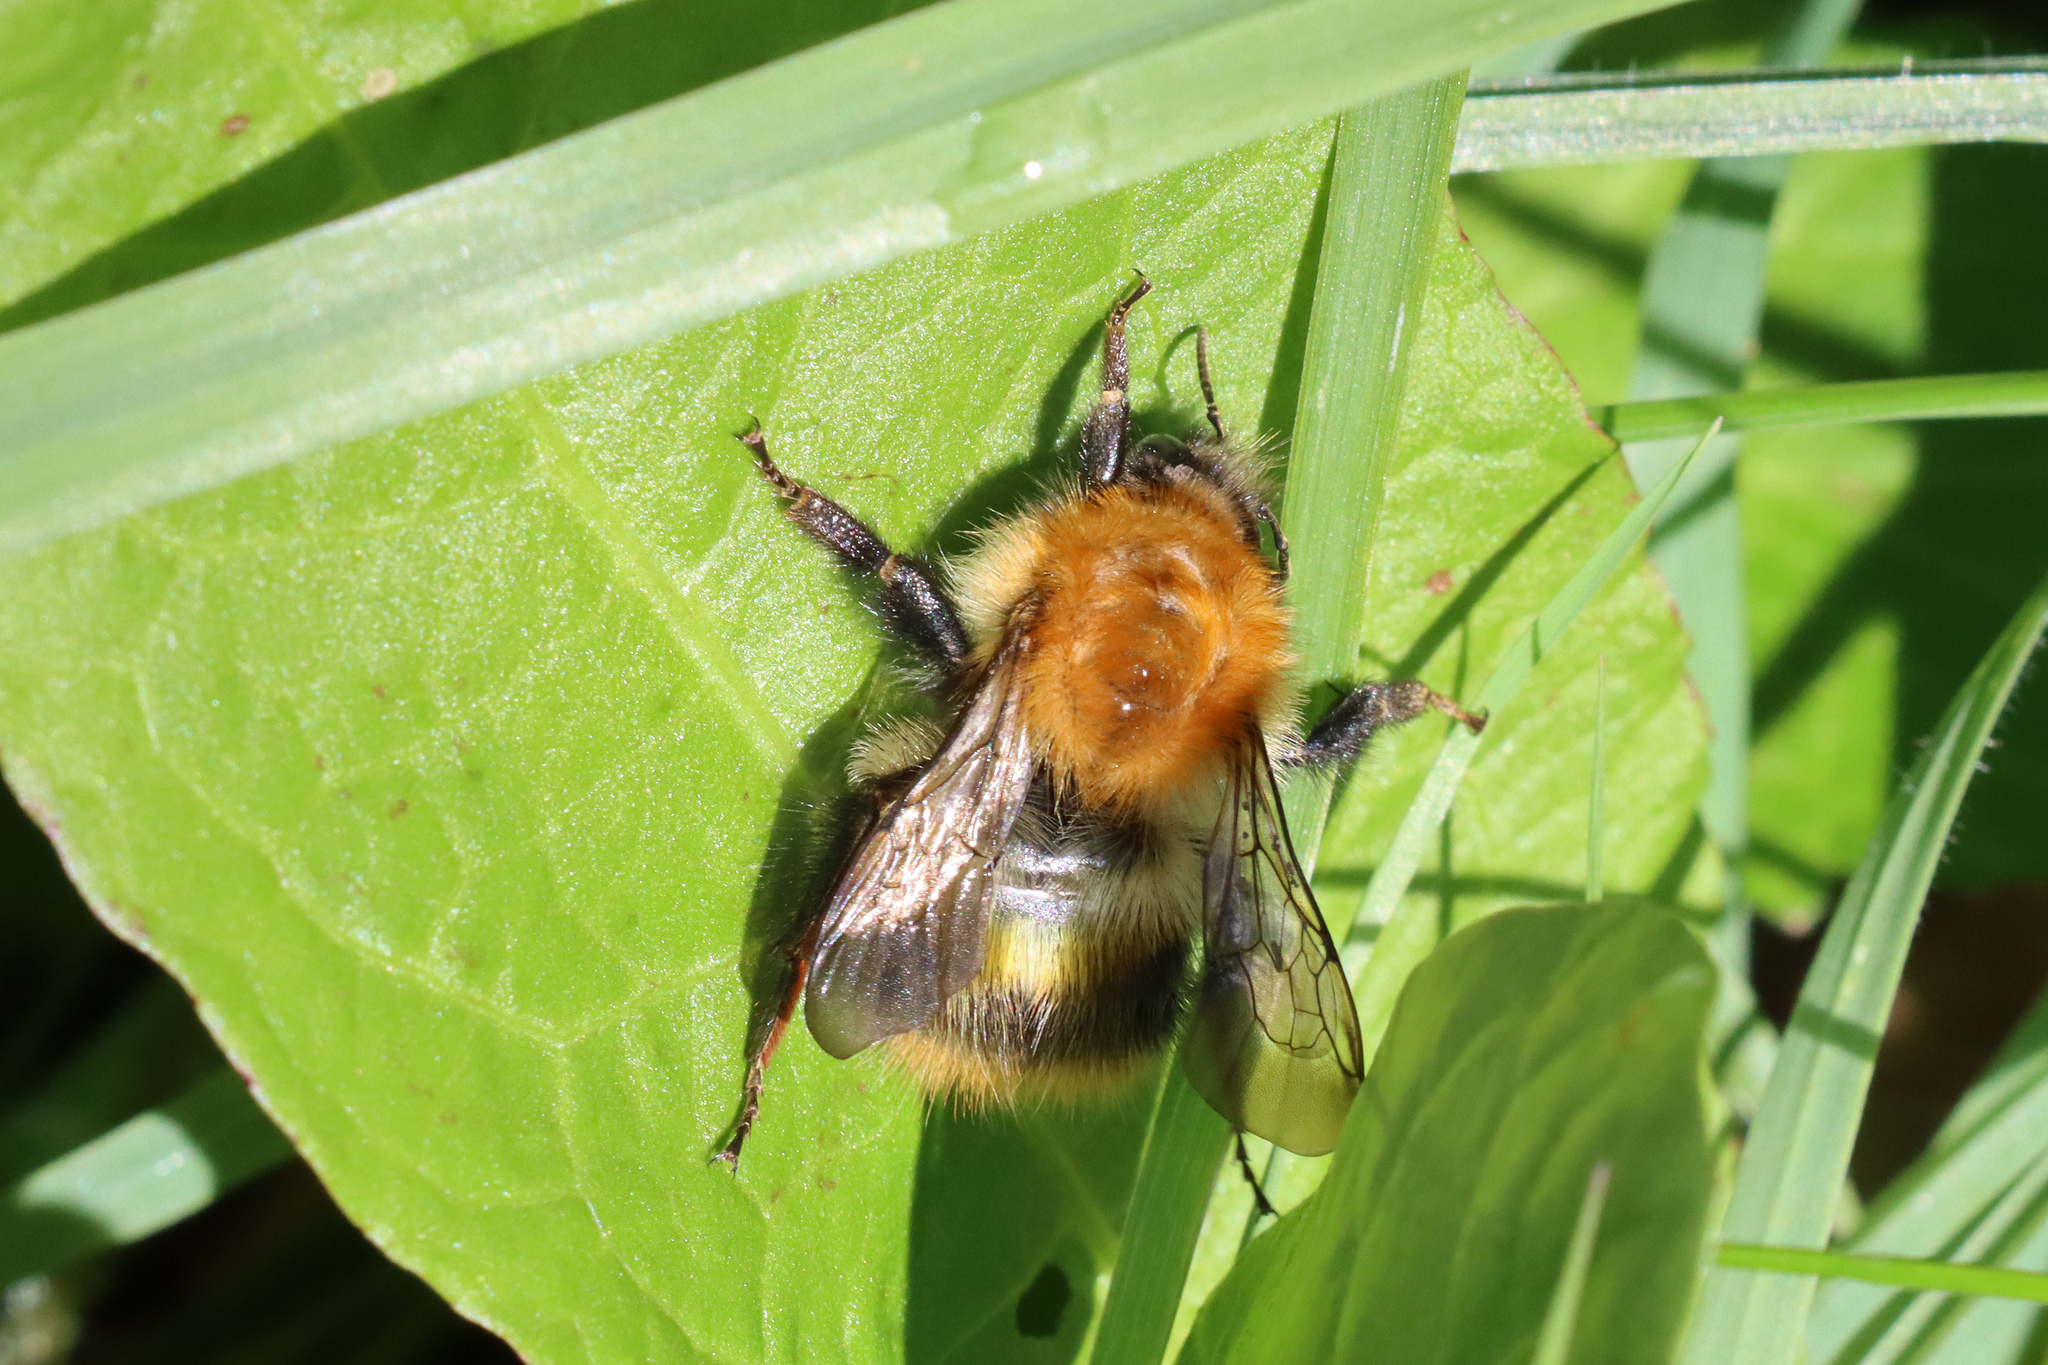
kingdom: Animalia
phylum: Arthropoda
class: Insecta
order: Hymenoptera
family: Apidae
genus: Bombus
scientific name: Bombus pascuorum
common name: Common carder bee
